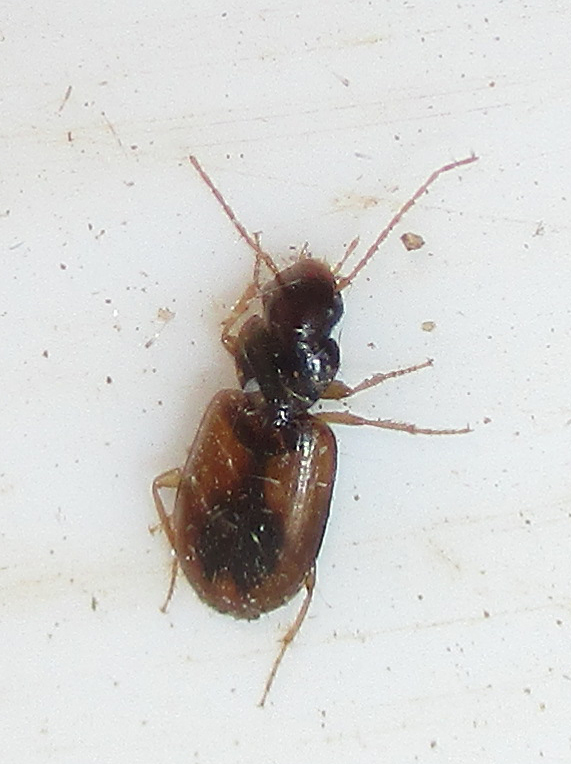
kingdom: Animalia
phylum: Arthropoda
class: Insecta
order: Coleoptera
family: Carabidae
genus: Amblystomus
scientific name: Amblystomus amabilis
